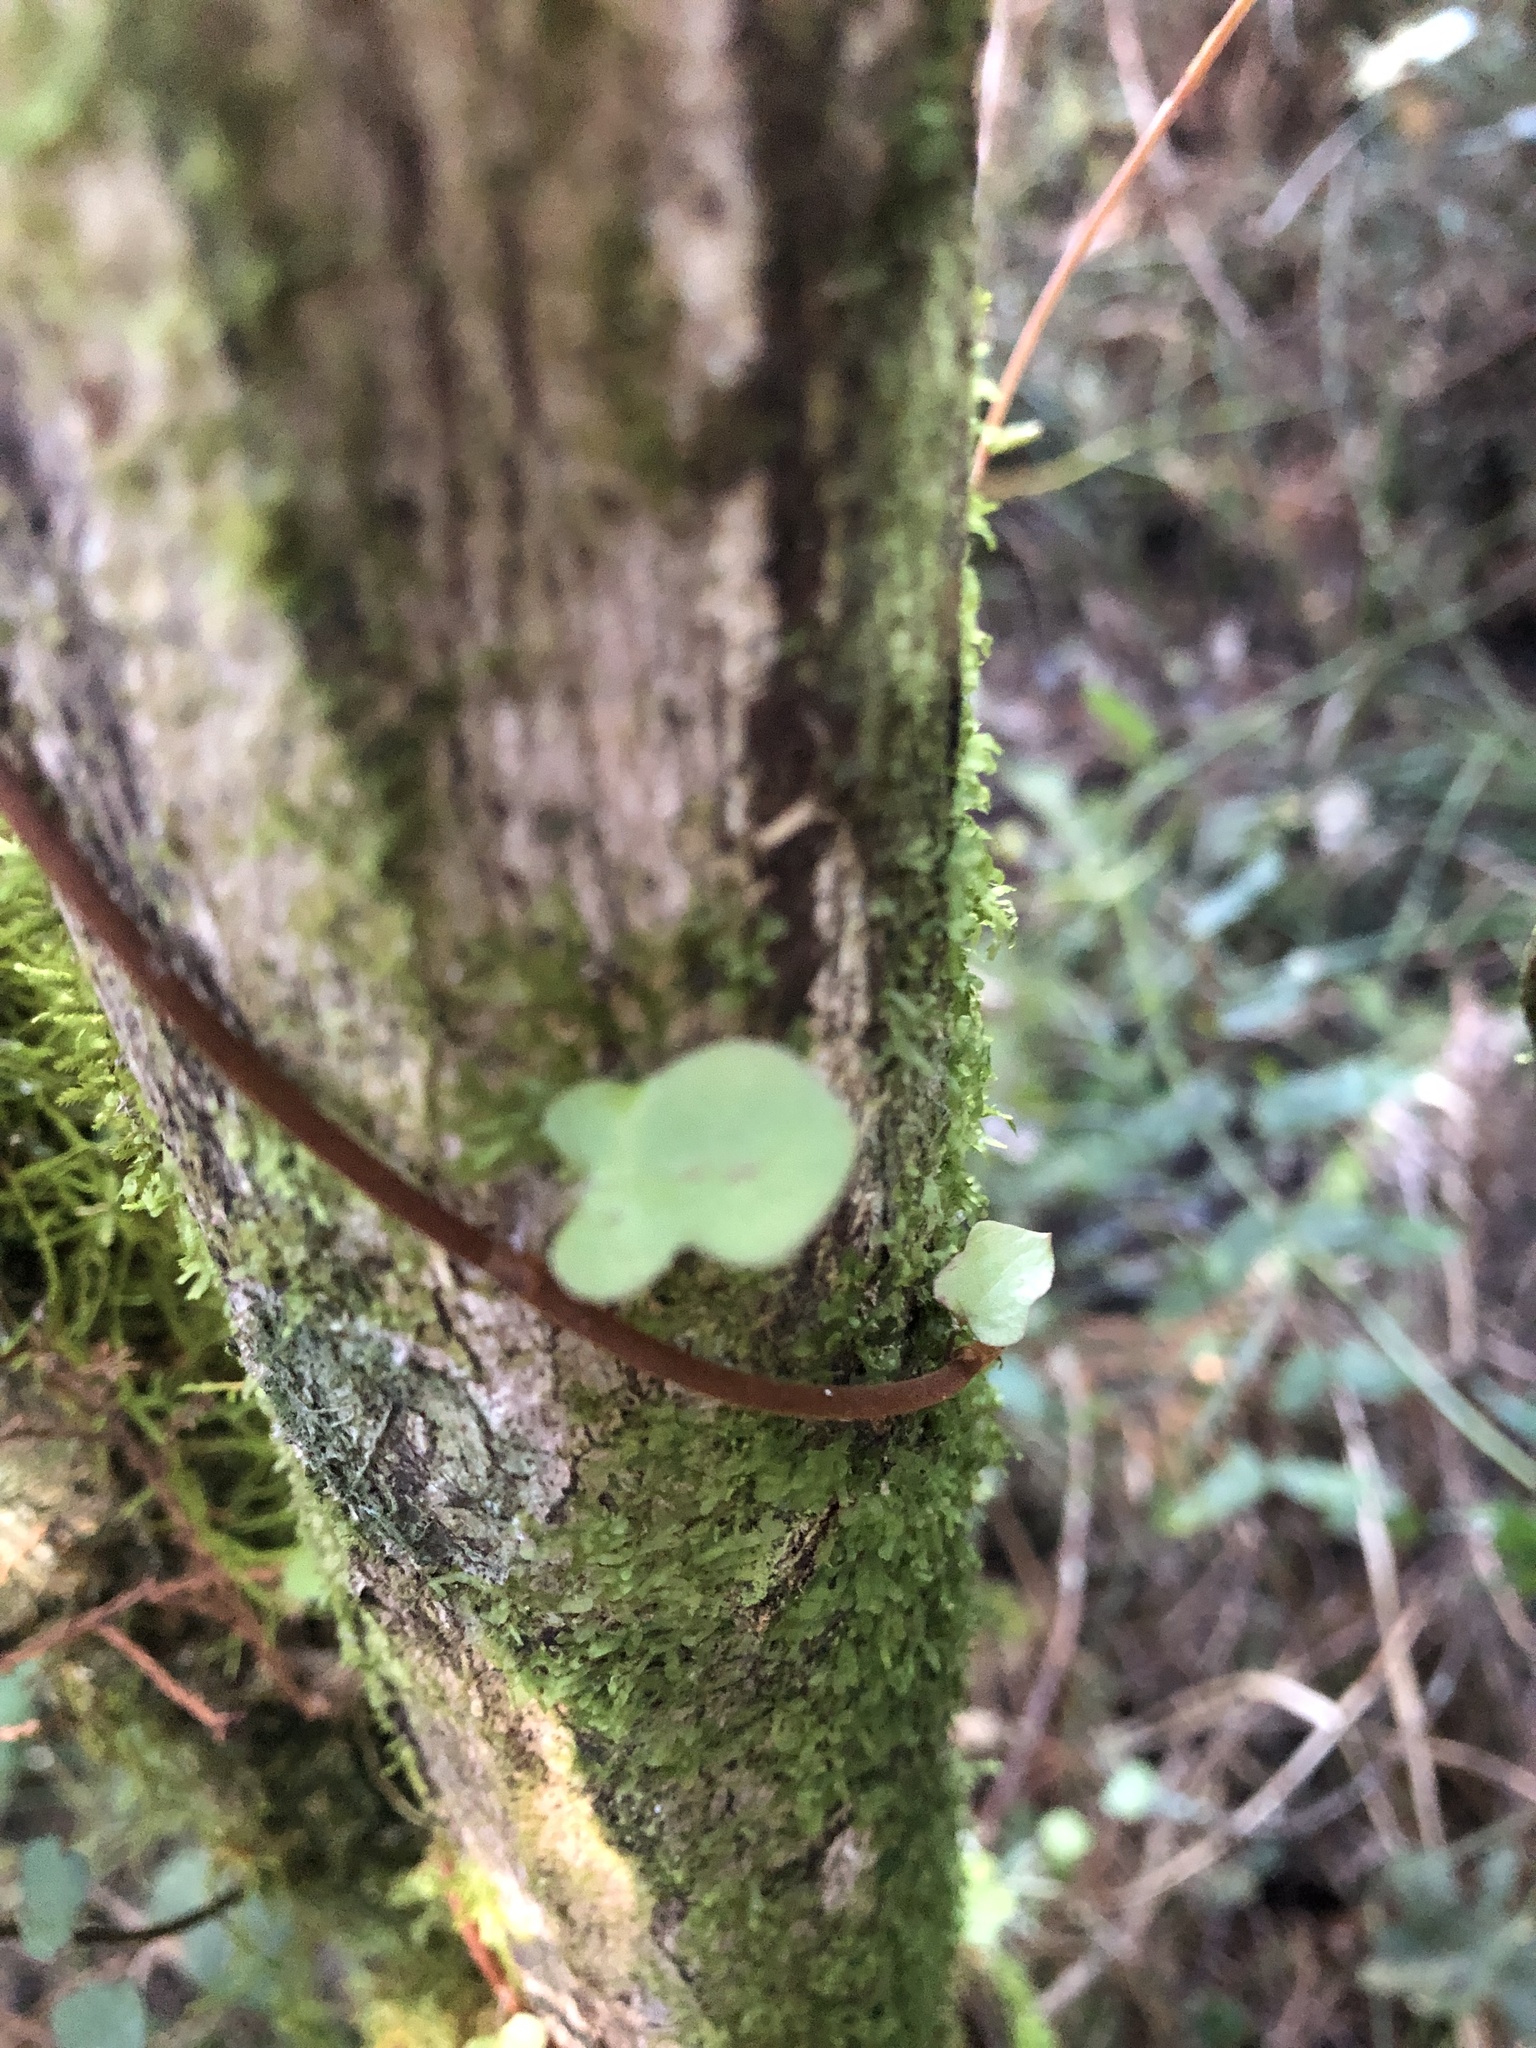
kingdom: Plantae
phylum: Tracheophyta
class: Magnoliopsida
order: Caryophyllales
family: Polygonaceae
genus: Muehlenbeckia
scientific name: Muehlenbeckia australis
